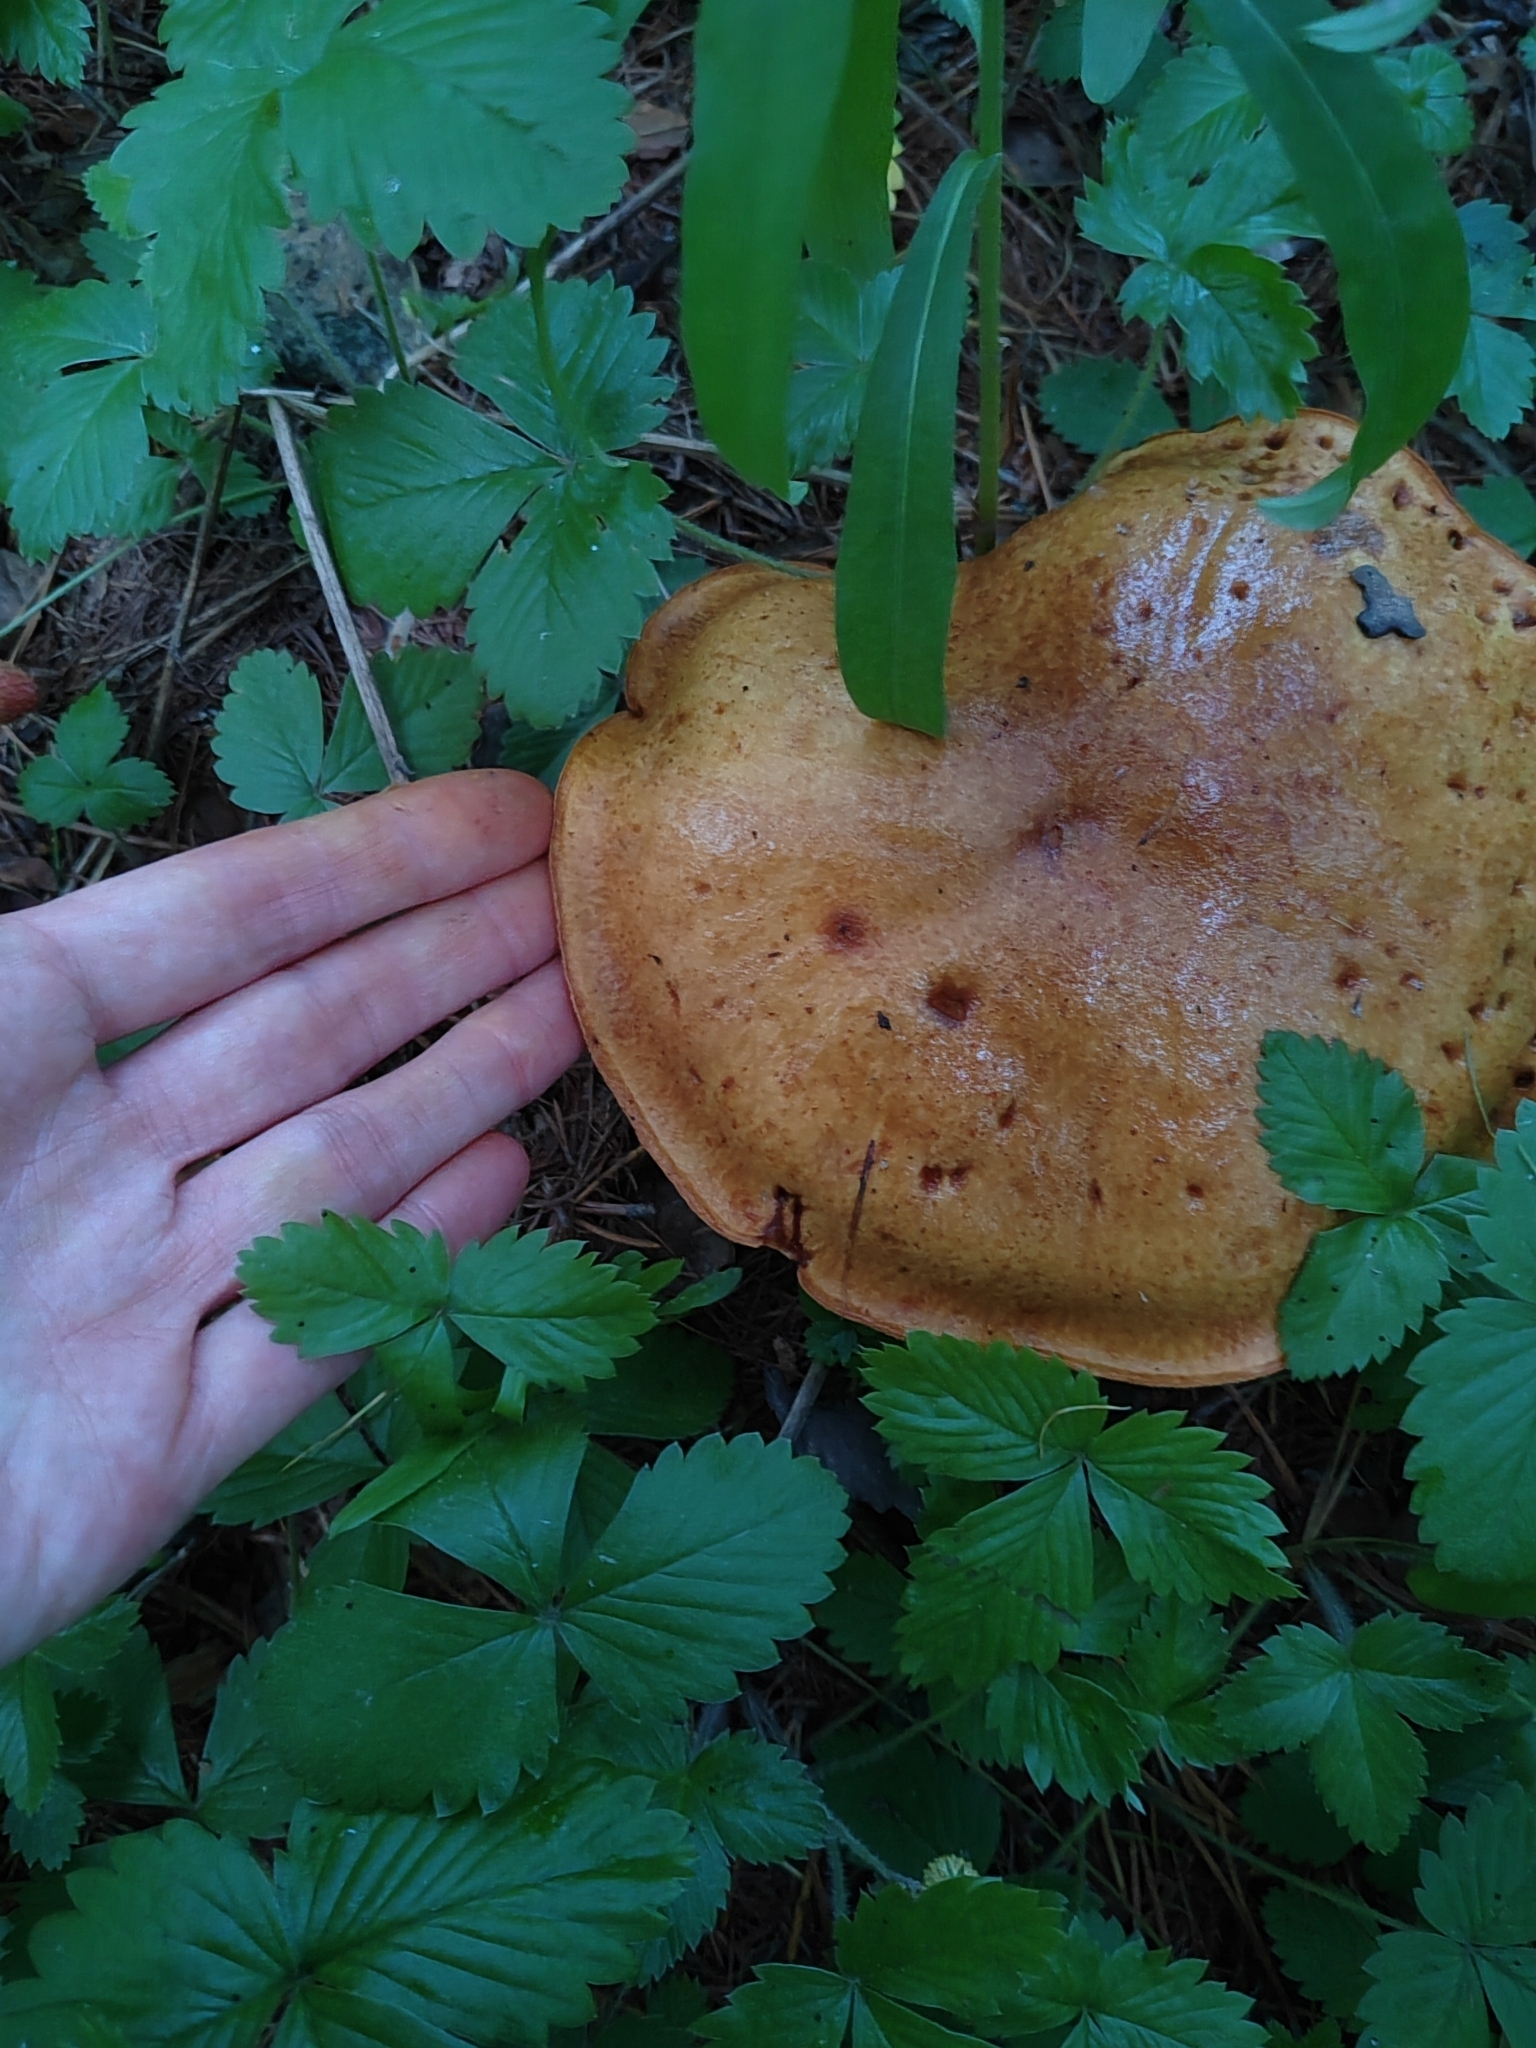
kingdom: Fungi
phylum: Basidiomycota
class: Agaricomycetes
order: Boletales
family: Suillaceae
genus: Suillus
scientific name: Suillus grevillei
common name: Larch bolete
